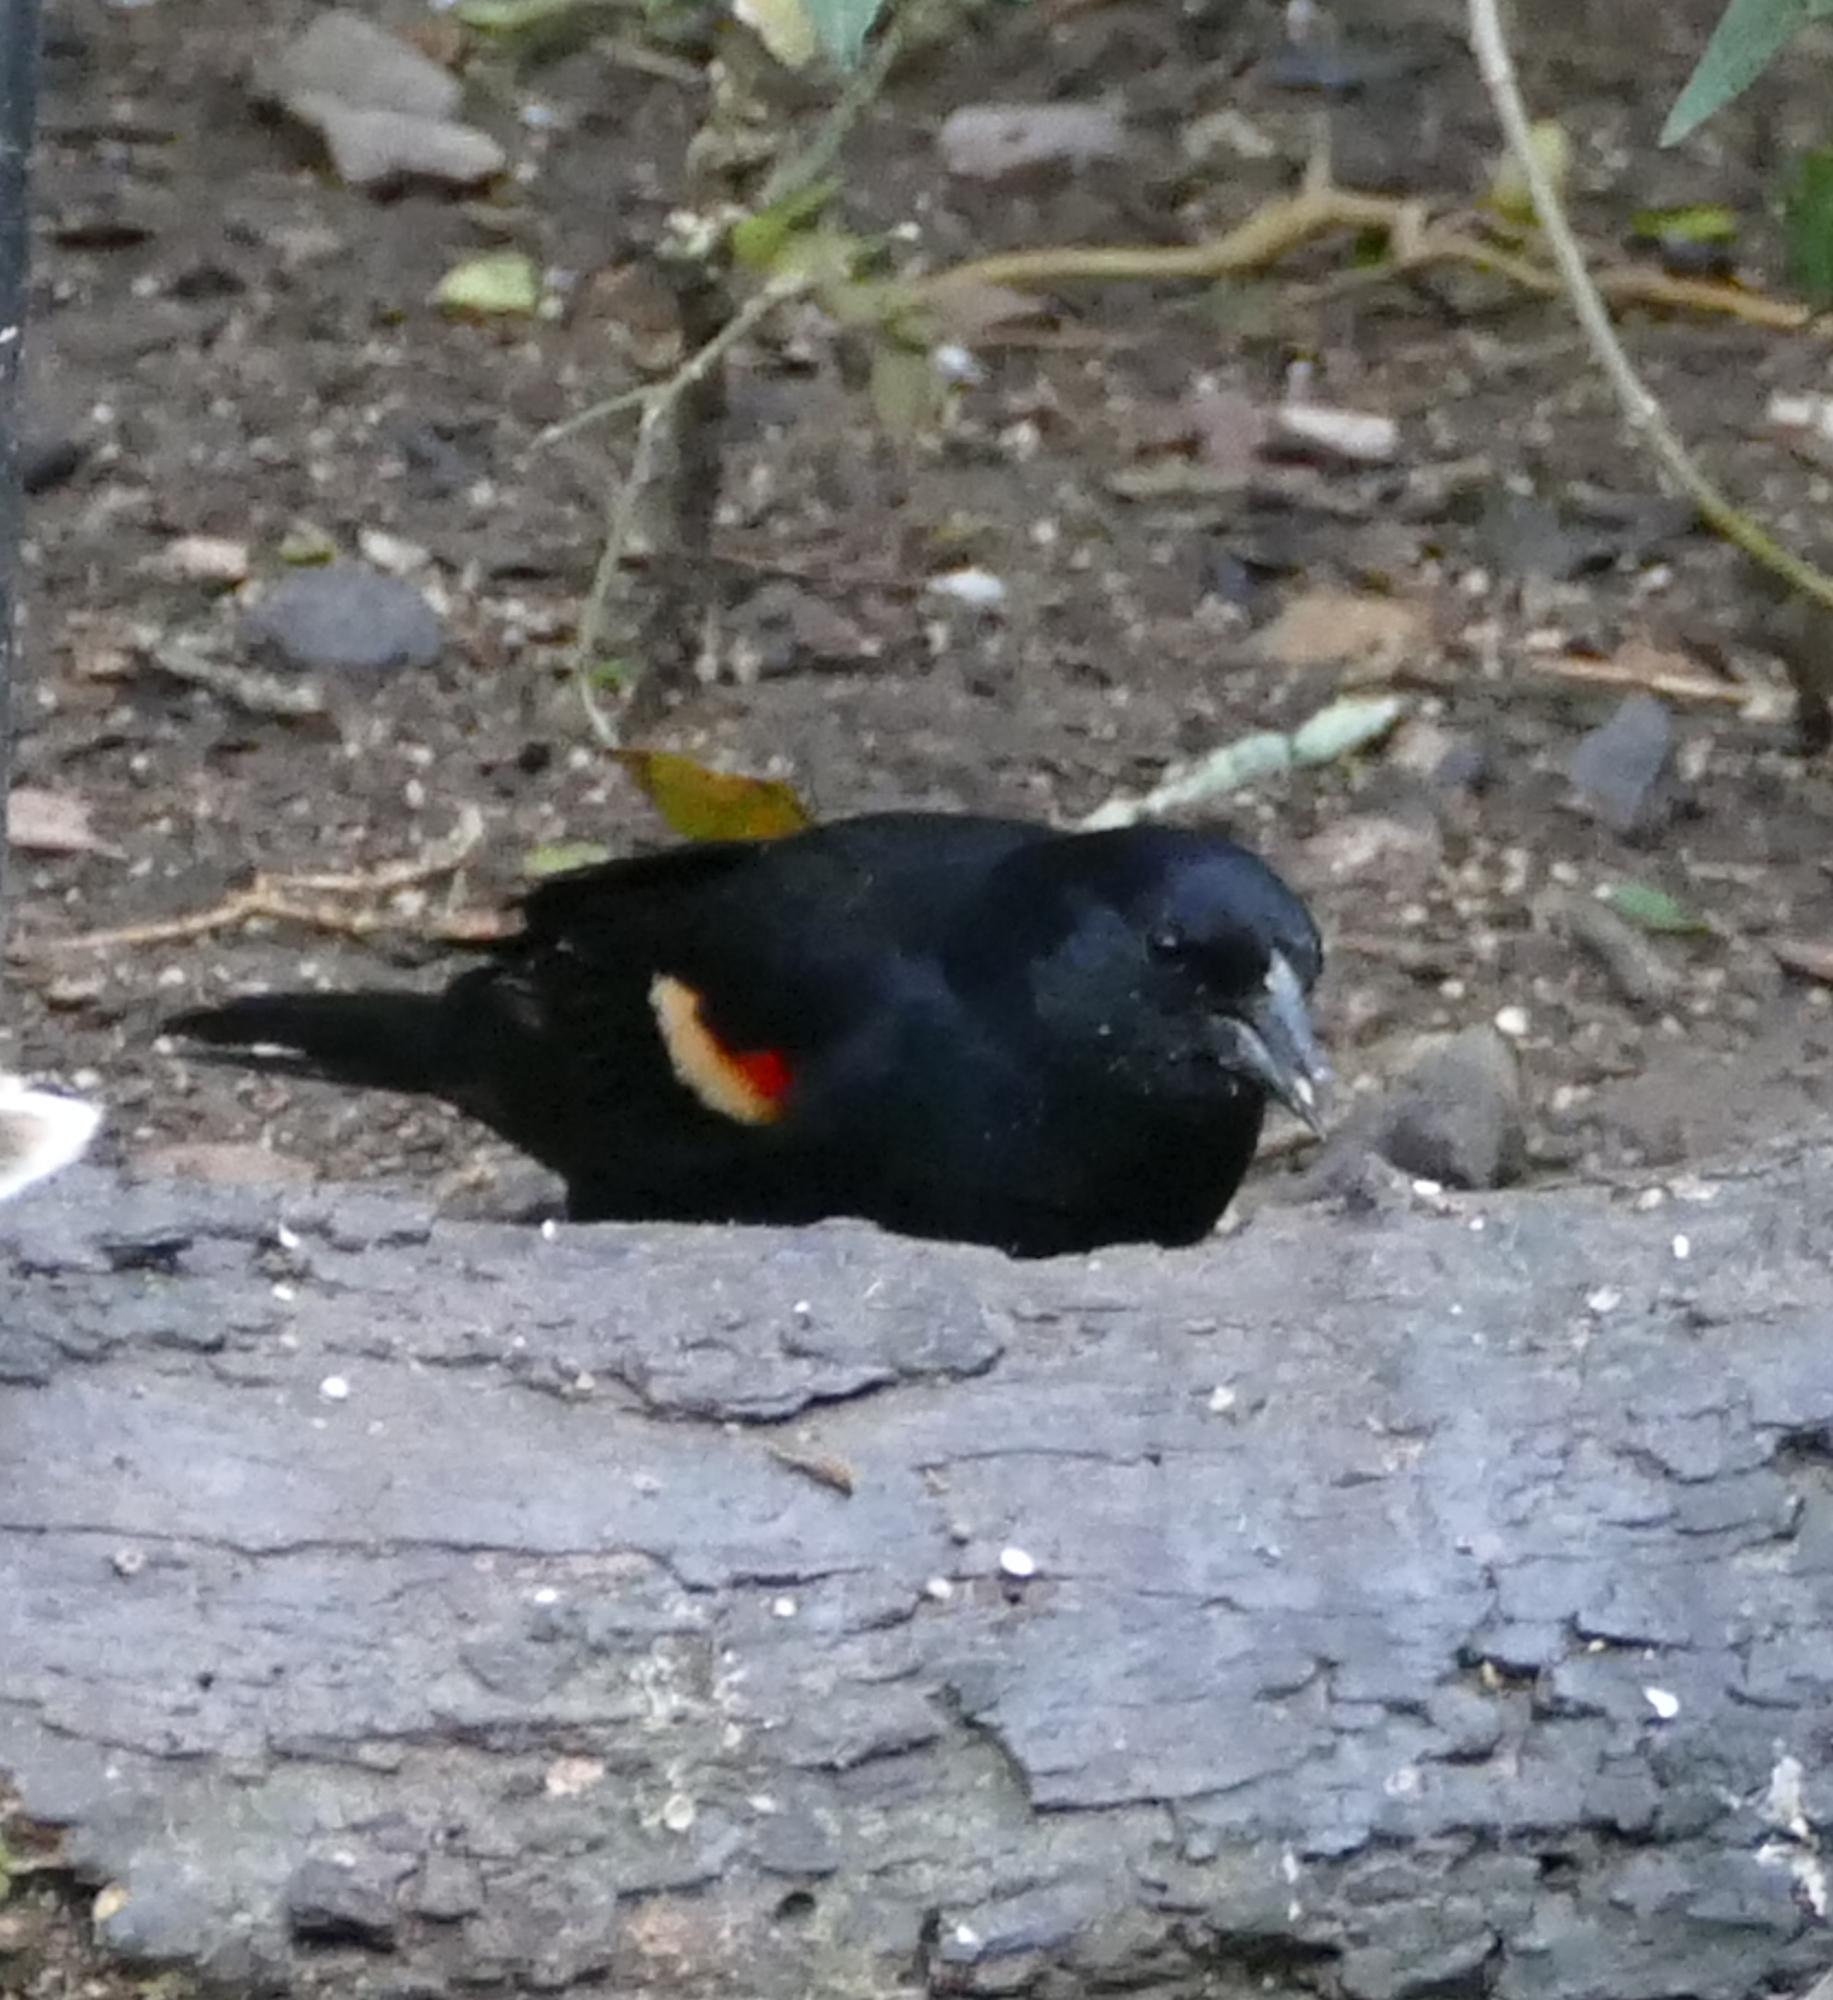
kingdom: Animalia
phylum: Chordata
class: Aves
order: Passeriformes
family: Icteridae
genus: Agelaius
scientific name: Agelaius phoeniceus
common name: Red-winged blackbird
